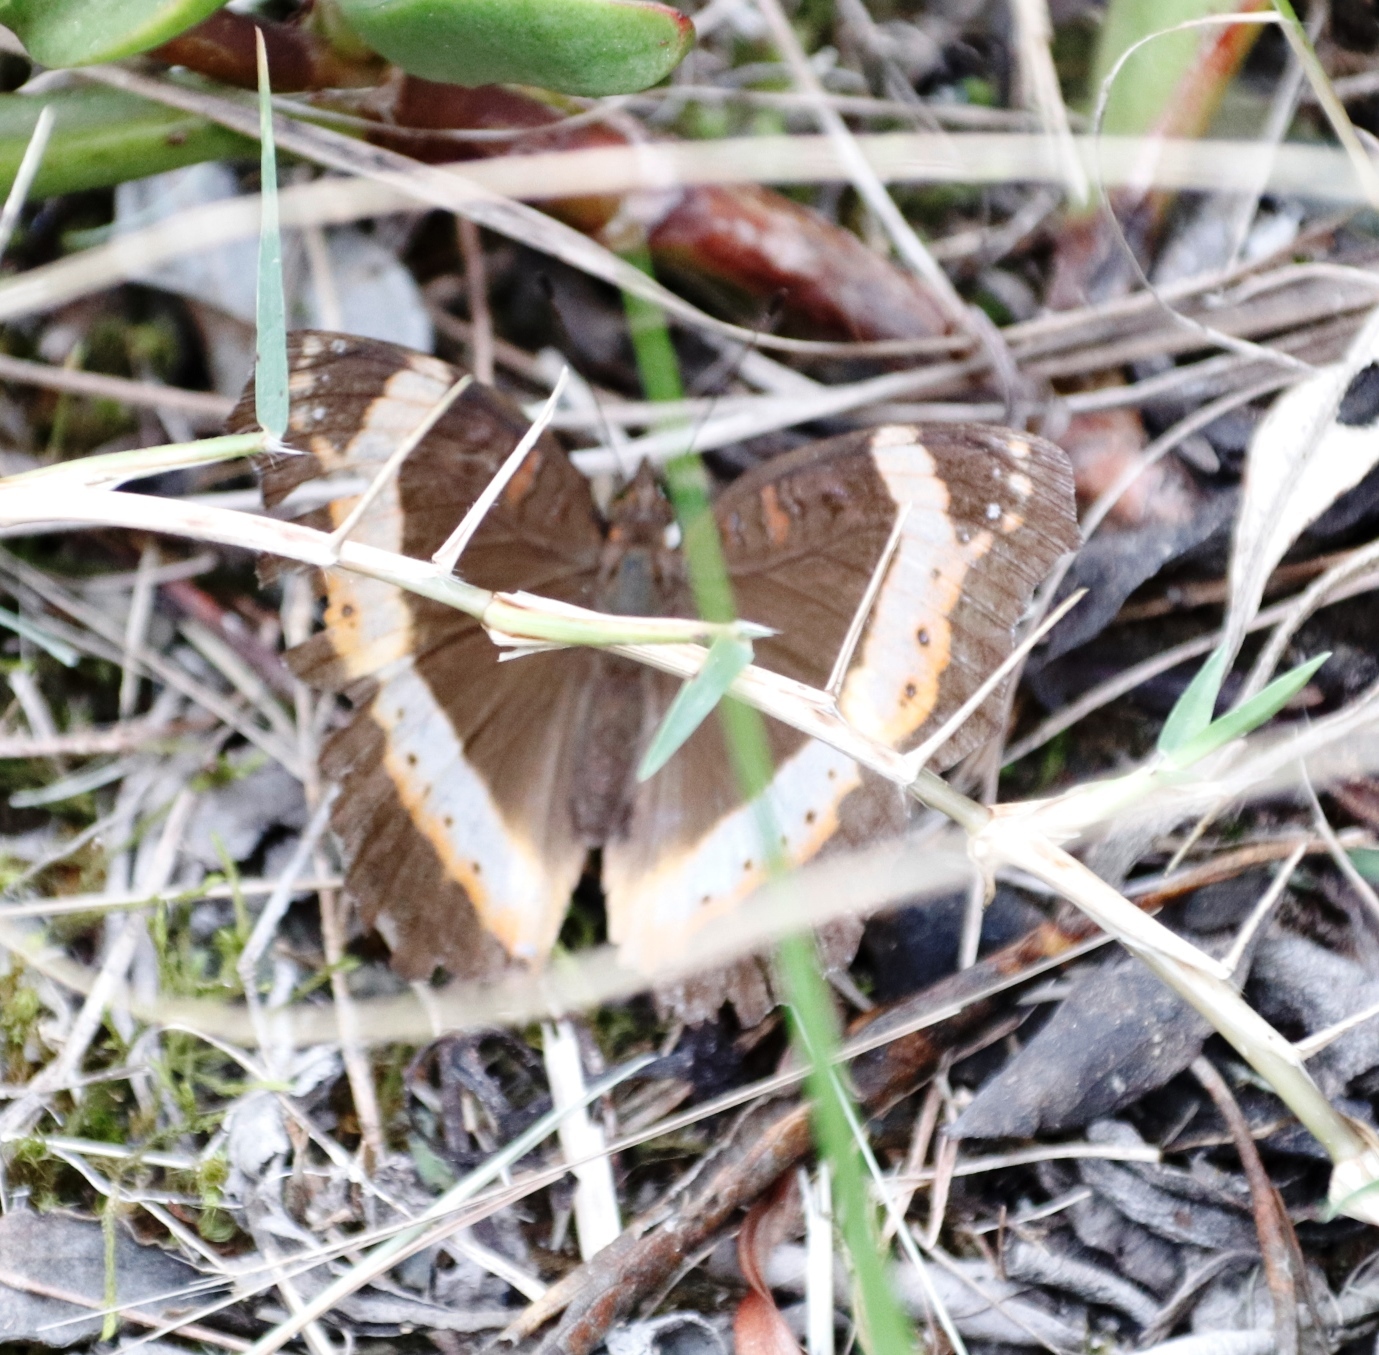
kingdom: Animalia
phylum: Arthropoda
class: Insecta
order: Lepidoptera
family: Nymphalidae
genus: Junonia
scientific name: Junonia archesia
